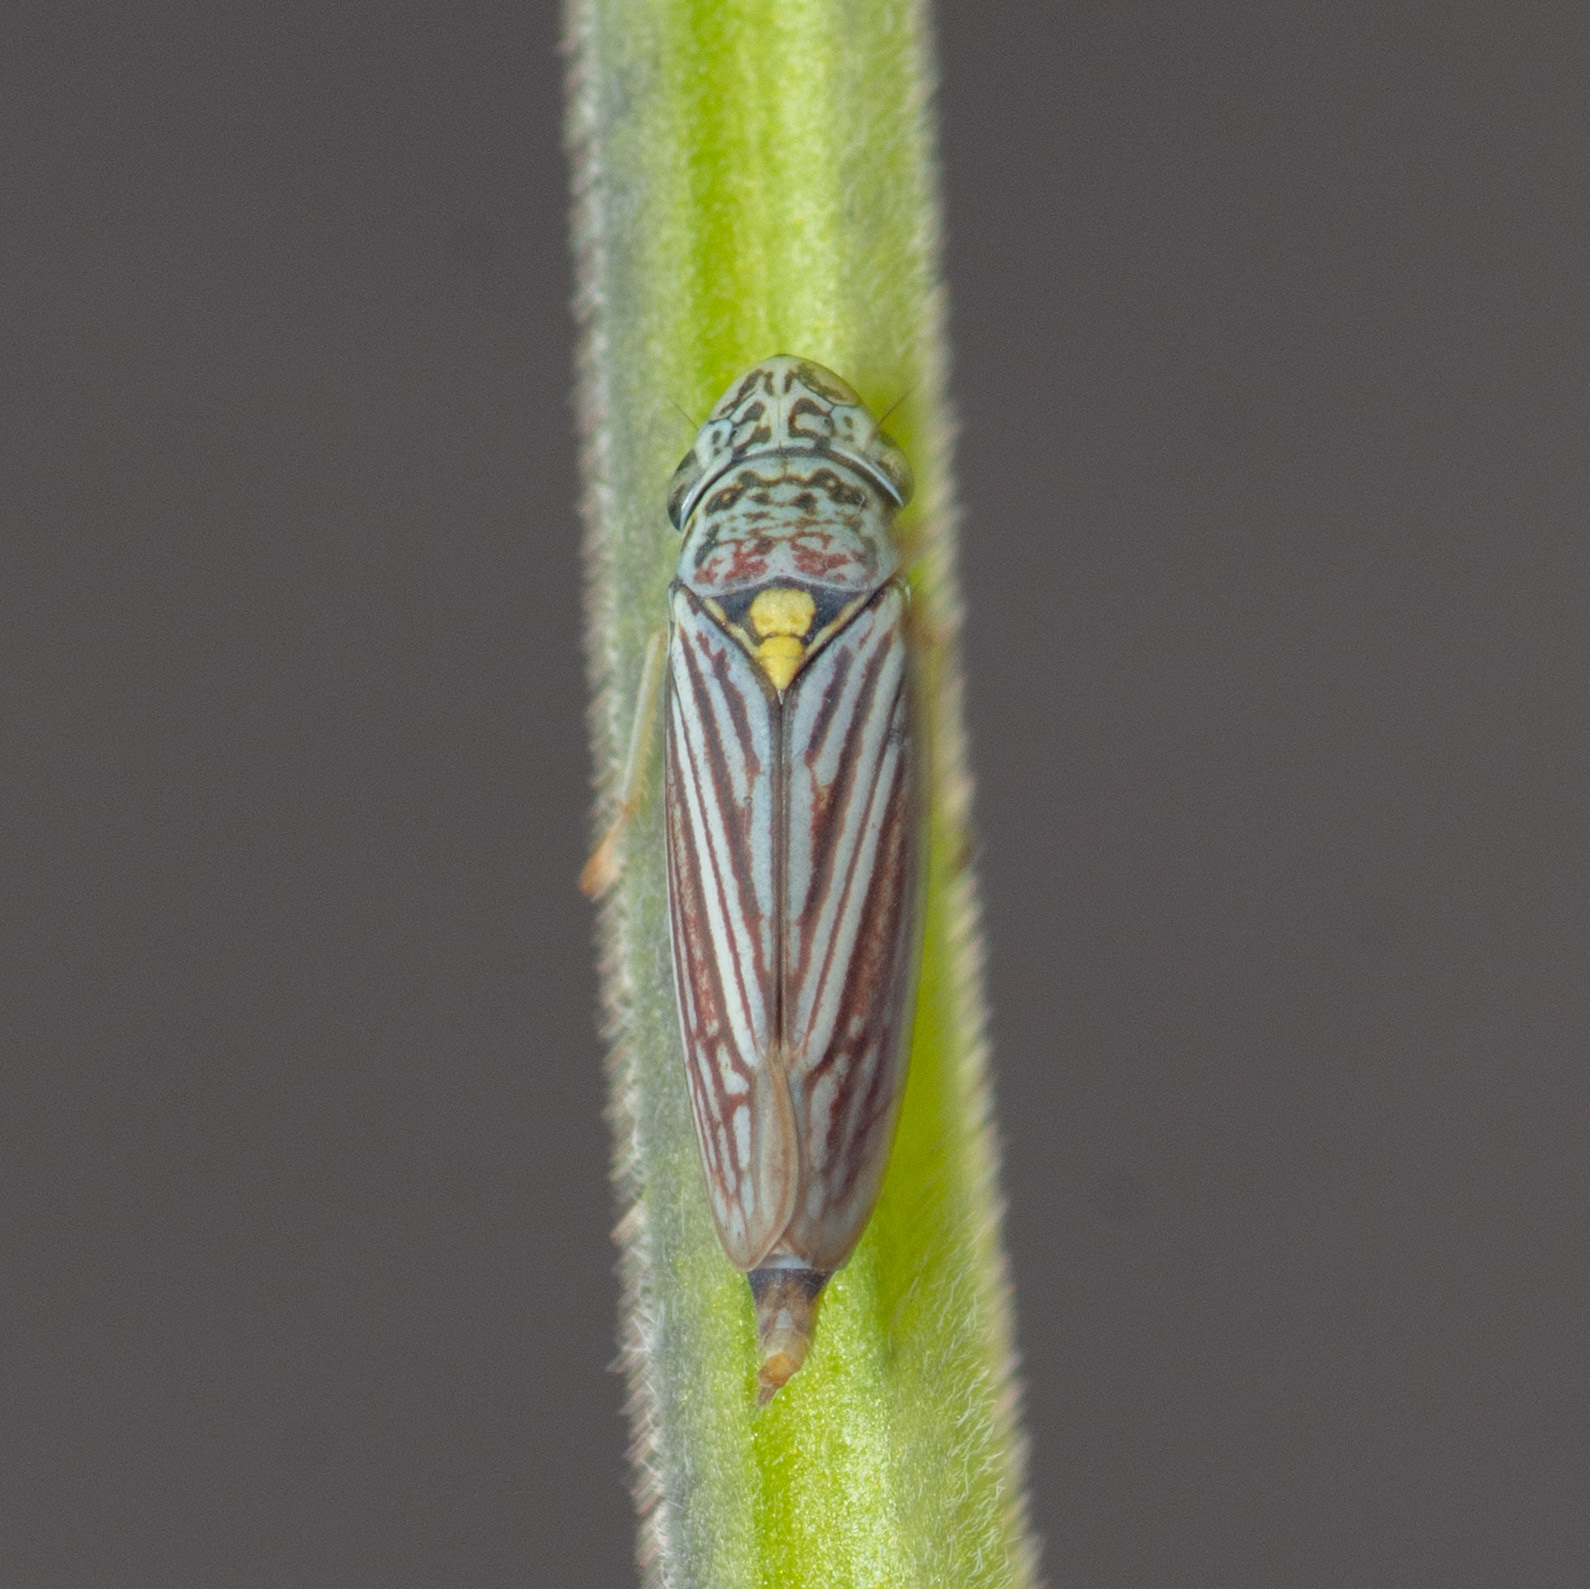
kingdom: Animalia
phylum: Arthropoda
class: Insecta
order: Hemiptera
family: Cicadellidae
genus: Neokolla
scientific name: Neokolla hieroglyphica
